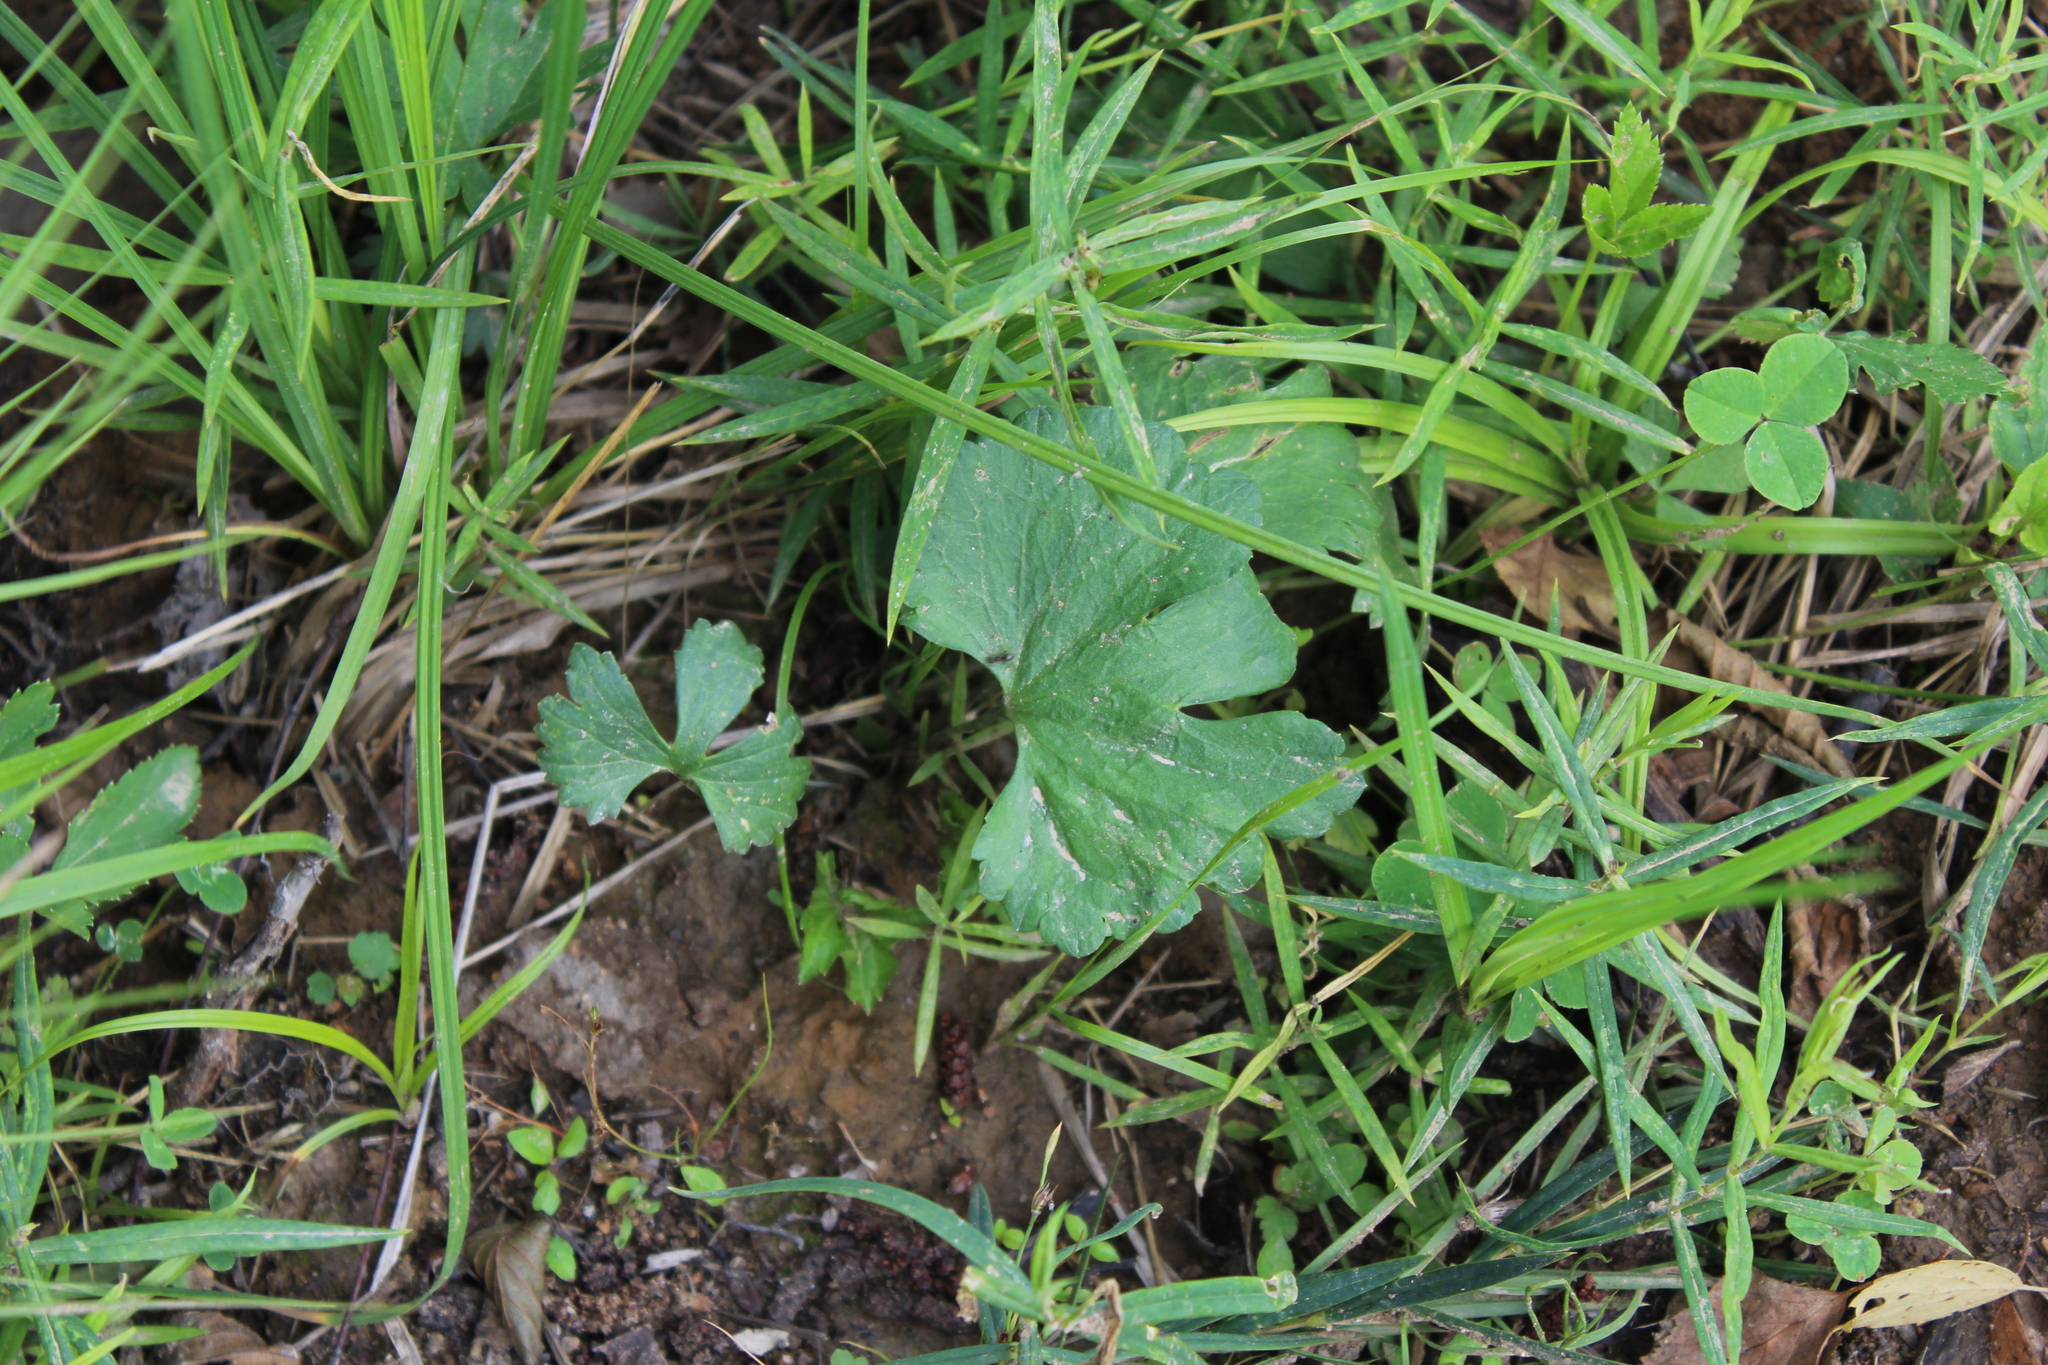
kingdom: Plantae
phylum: Tracheophyta
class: Magnoliopsida
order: Ranunculales
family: Ranunculaceae
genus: Ranunculus
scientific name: Ranunculus fallax
